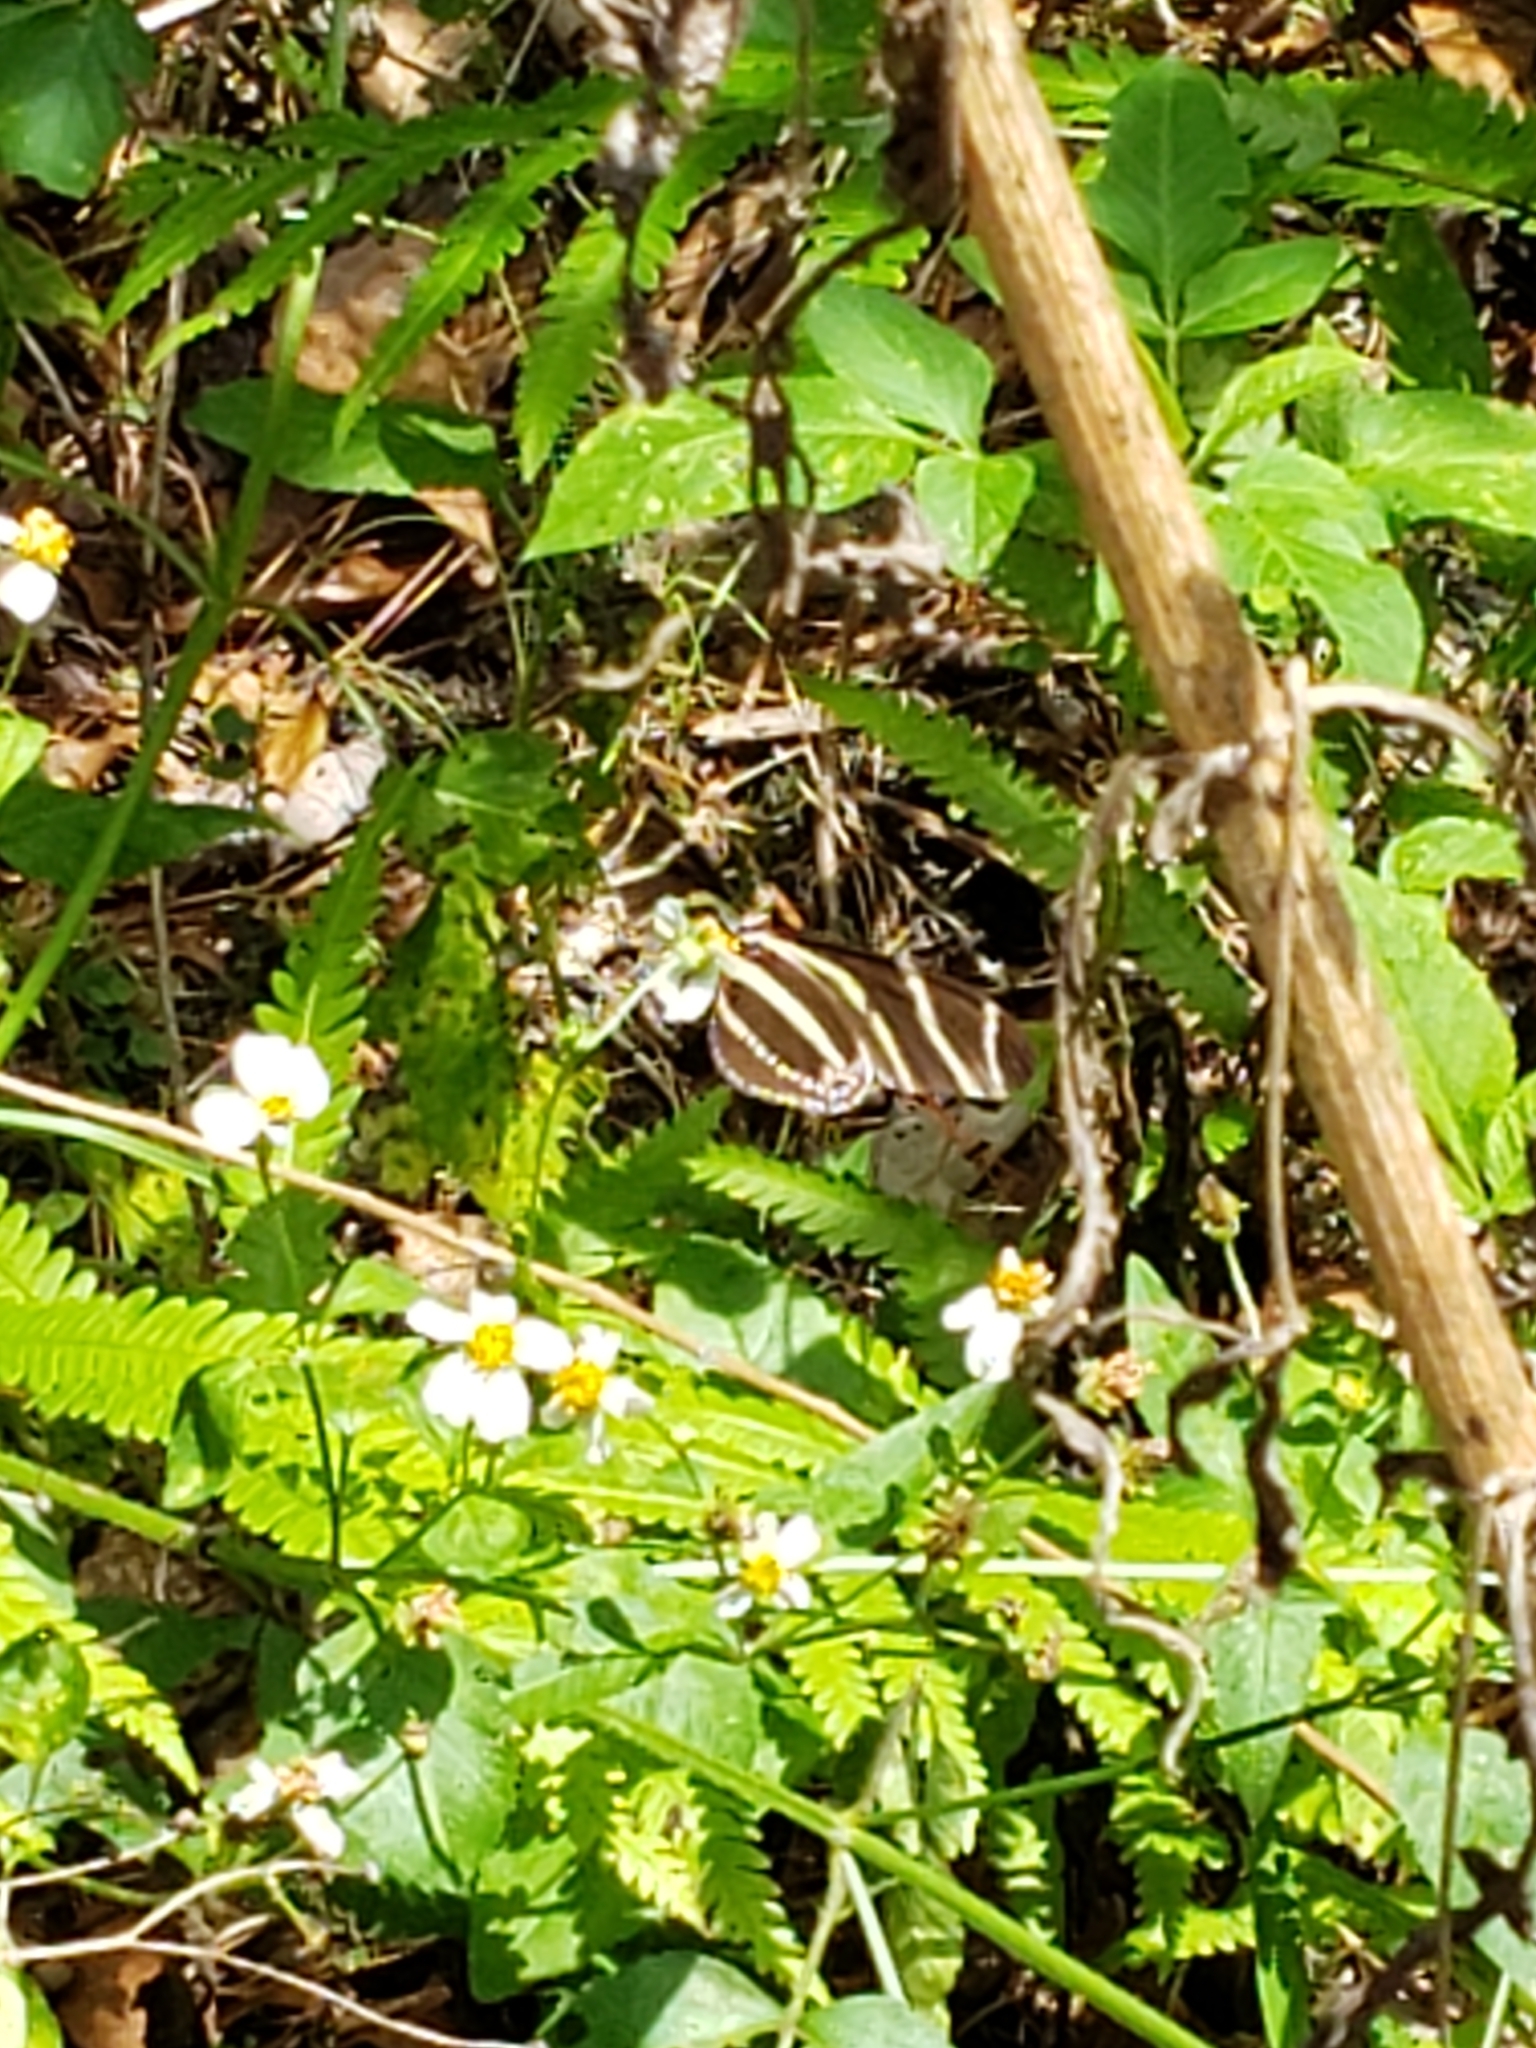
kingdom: Animalia
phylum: Arthropoda
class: Insecta
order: Lepidoptera
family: Nymphalidae
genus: Heliconius
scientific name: Heliconius charithonia
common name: Zebra long wing
